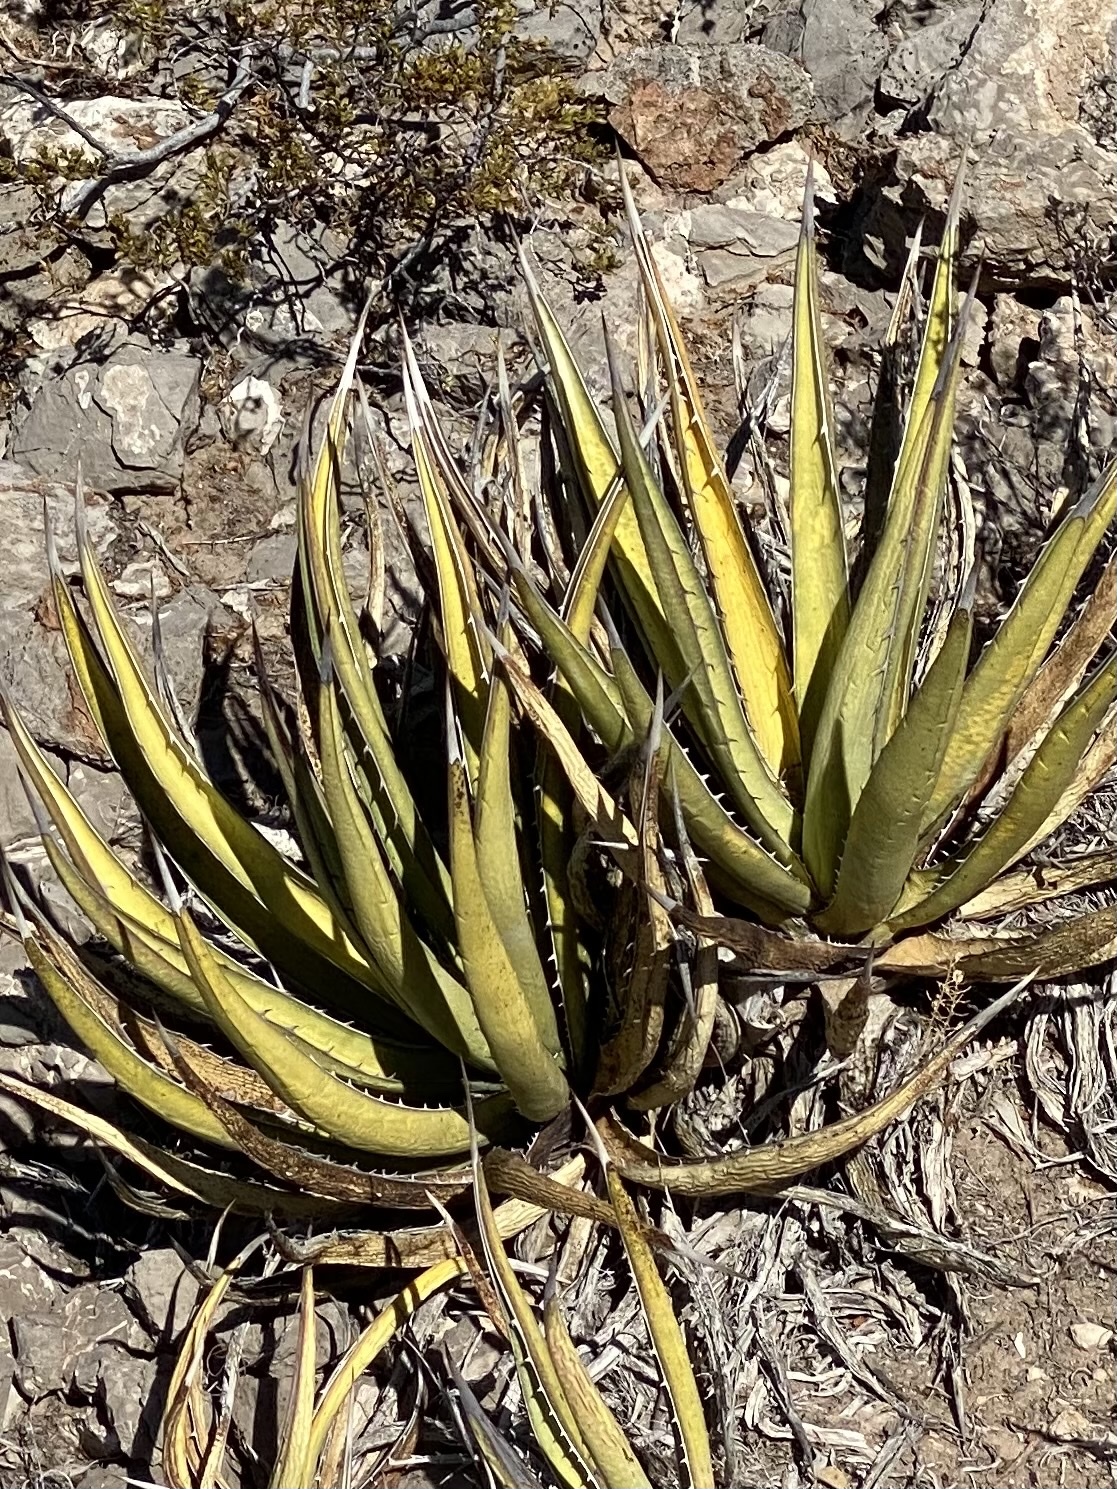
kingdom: Plantae
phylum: Tracheophyta
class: Liliopsida
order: Asparagales
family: Asparagaceae
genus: Agave
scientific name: Agave lechuguilla
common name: Lecheguilla agave
